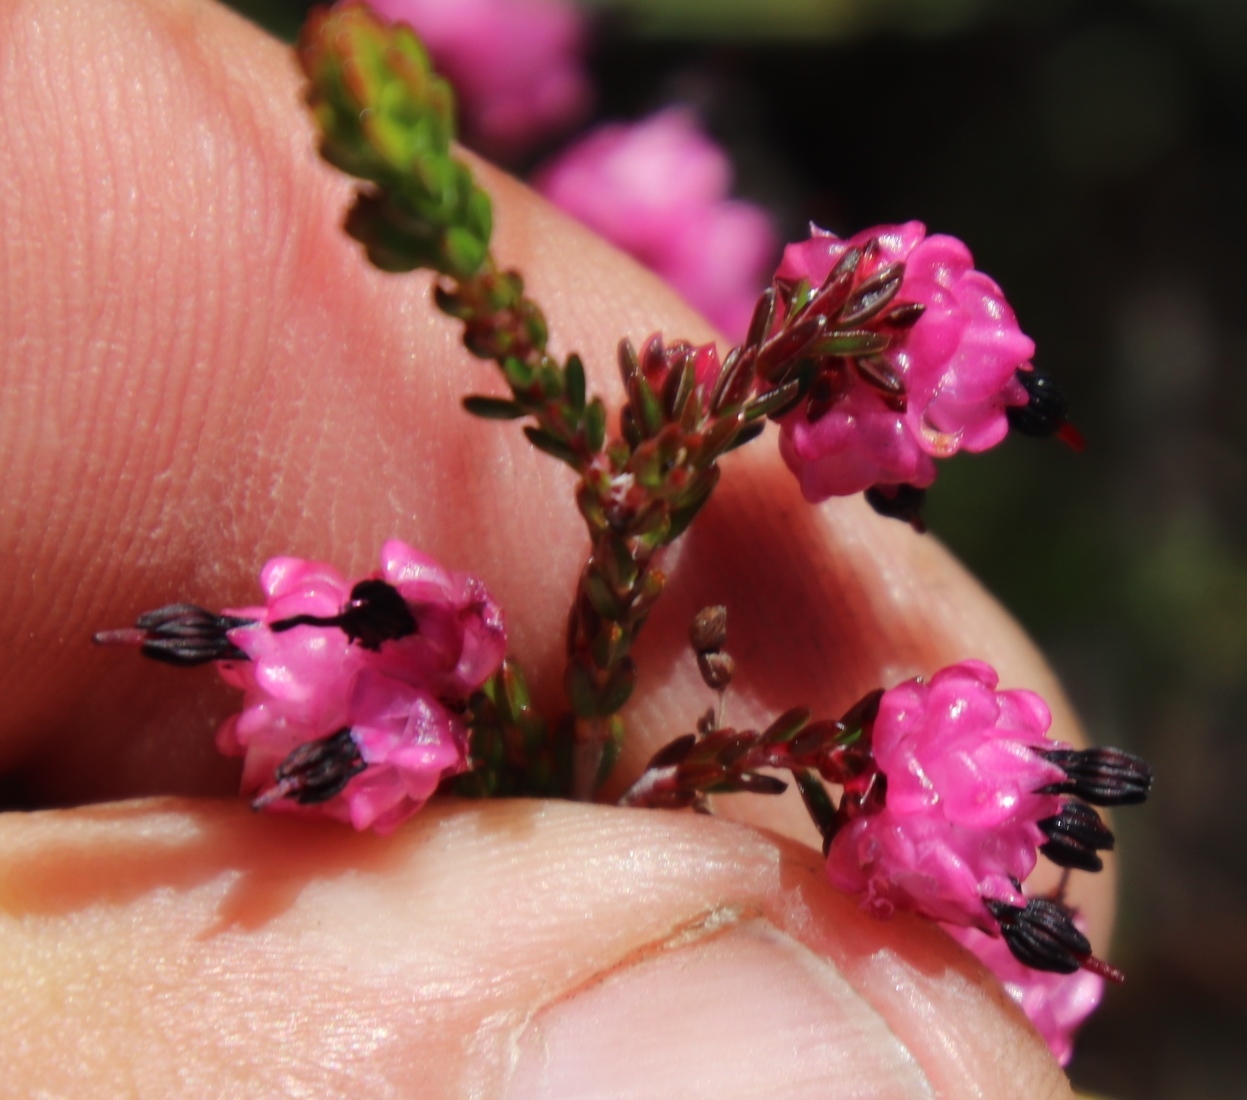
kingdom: Plantae
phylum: Tracheophyta
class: Magnoliopsida
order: Ericales
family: Ericaceae
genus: Erica
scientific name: Erica spumosa
